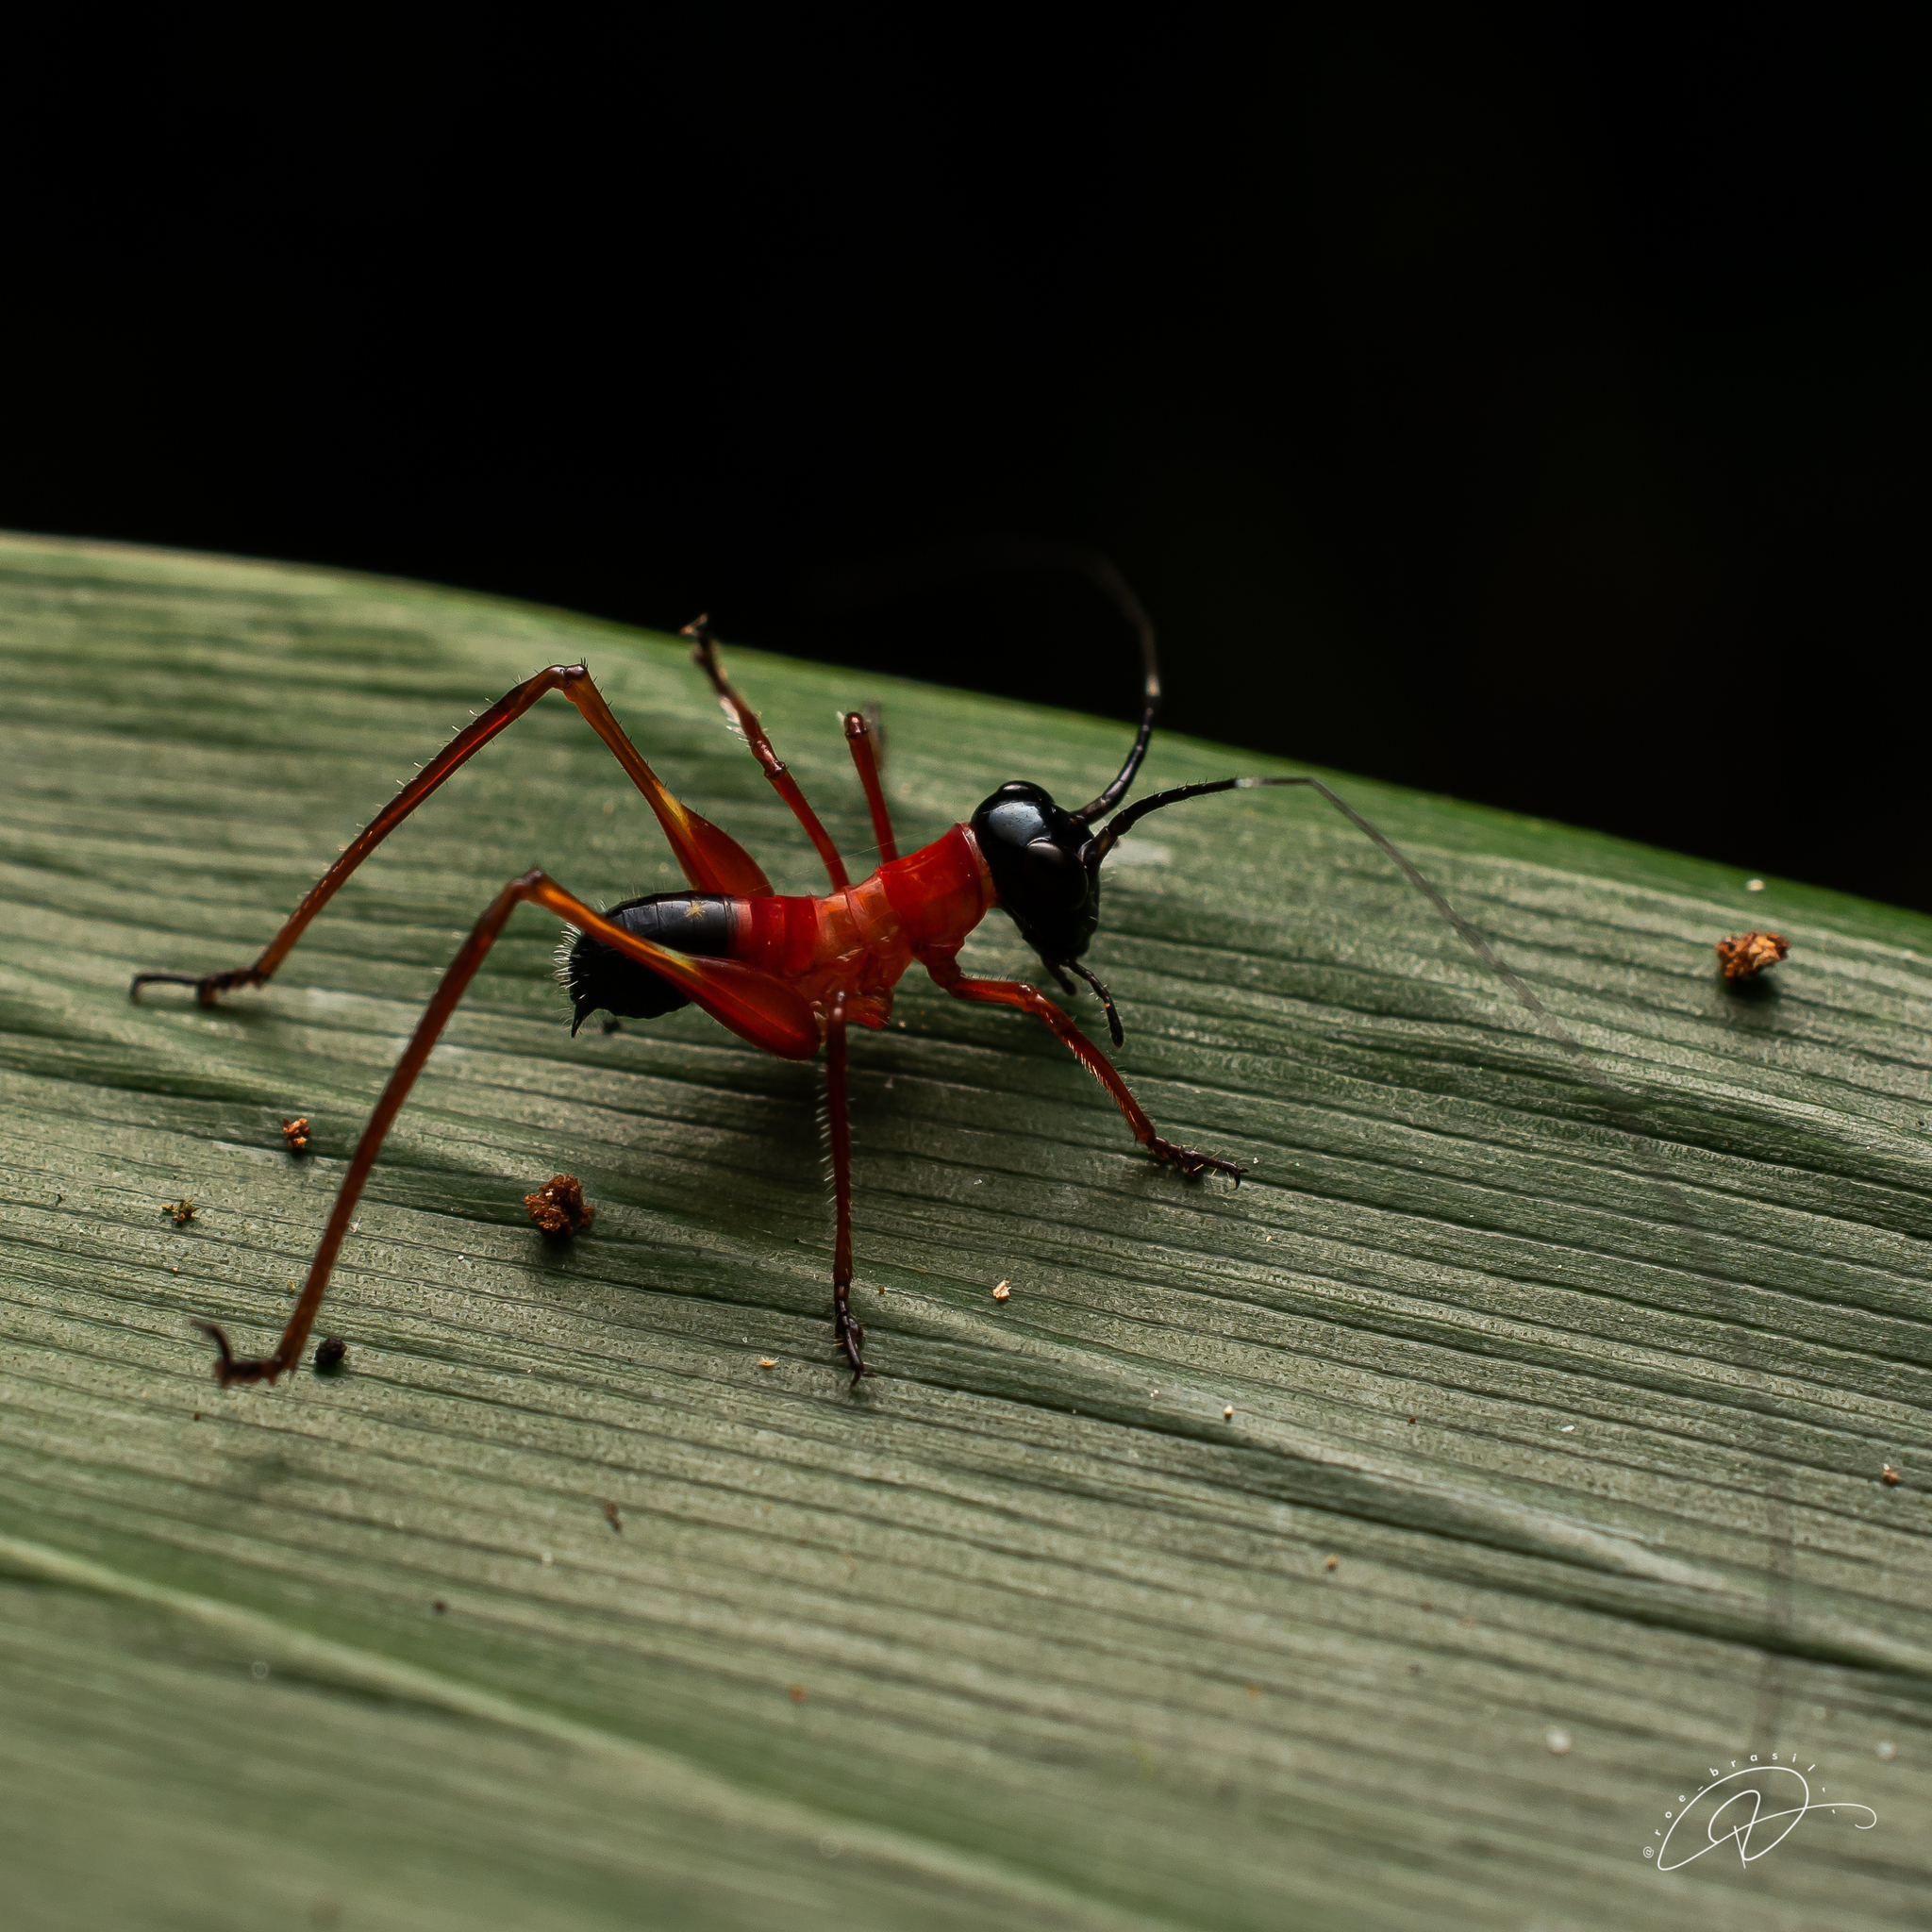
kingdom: Animalia
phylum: Arthropoda
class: Insecta
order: Orthoptera
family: Tettigoniidae
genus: Scaphura
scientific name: Scaphura nigra
